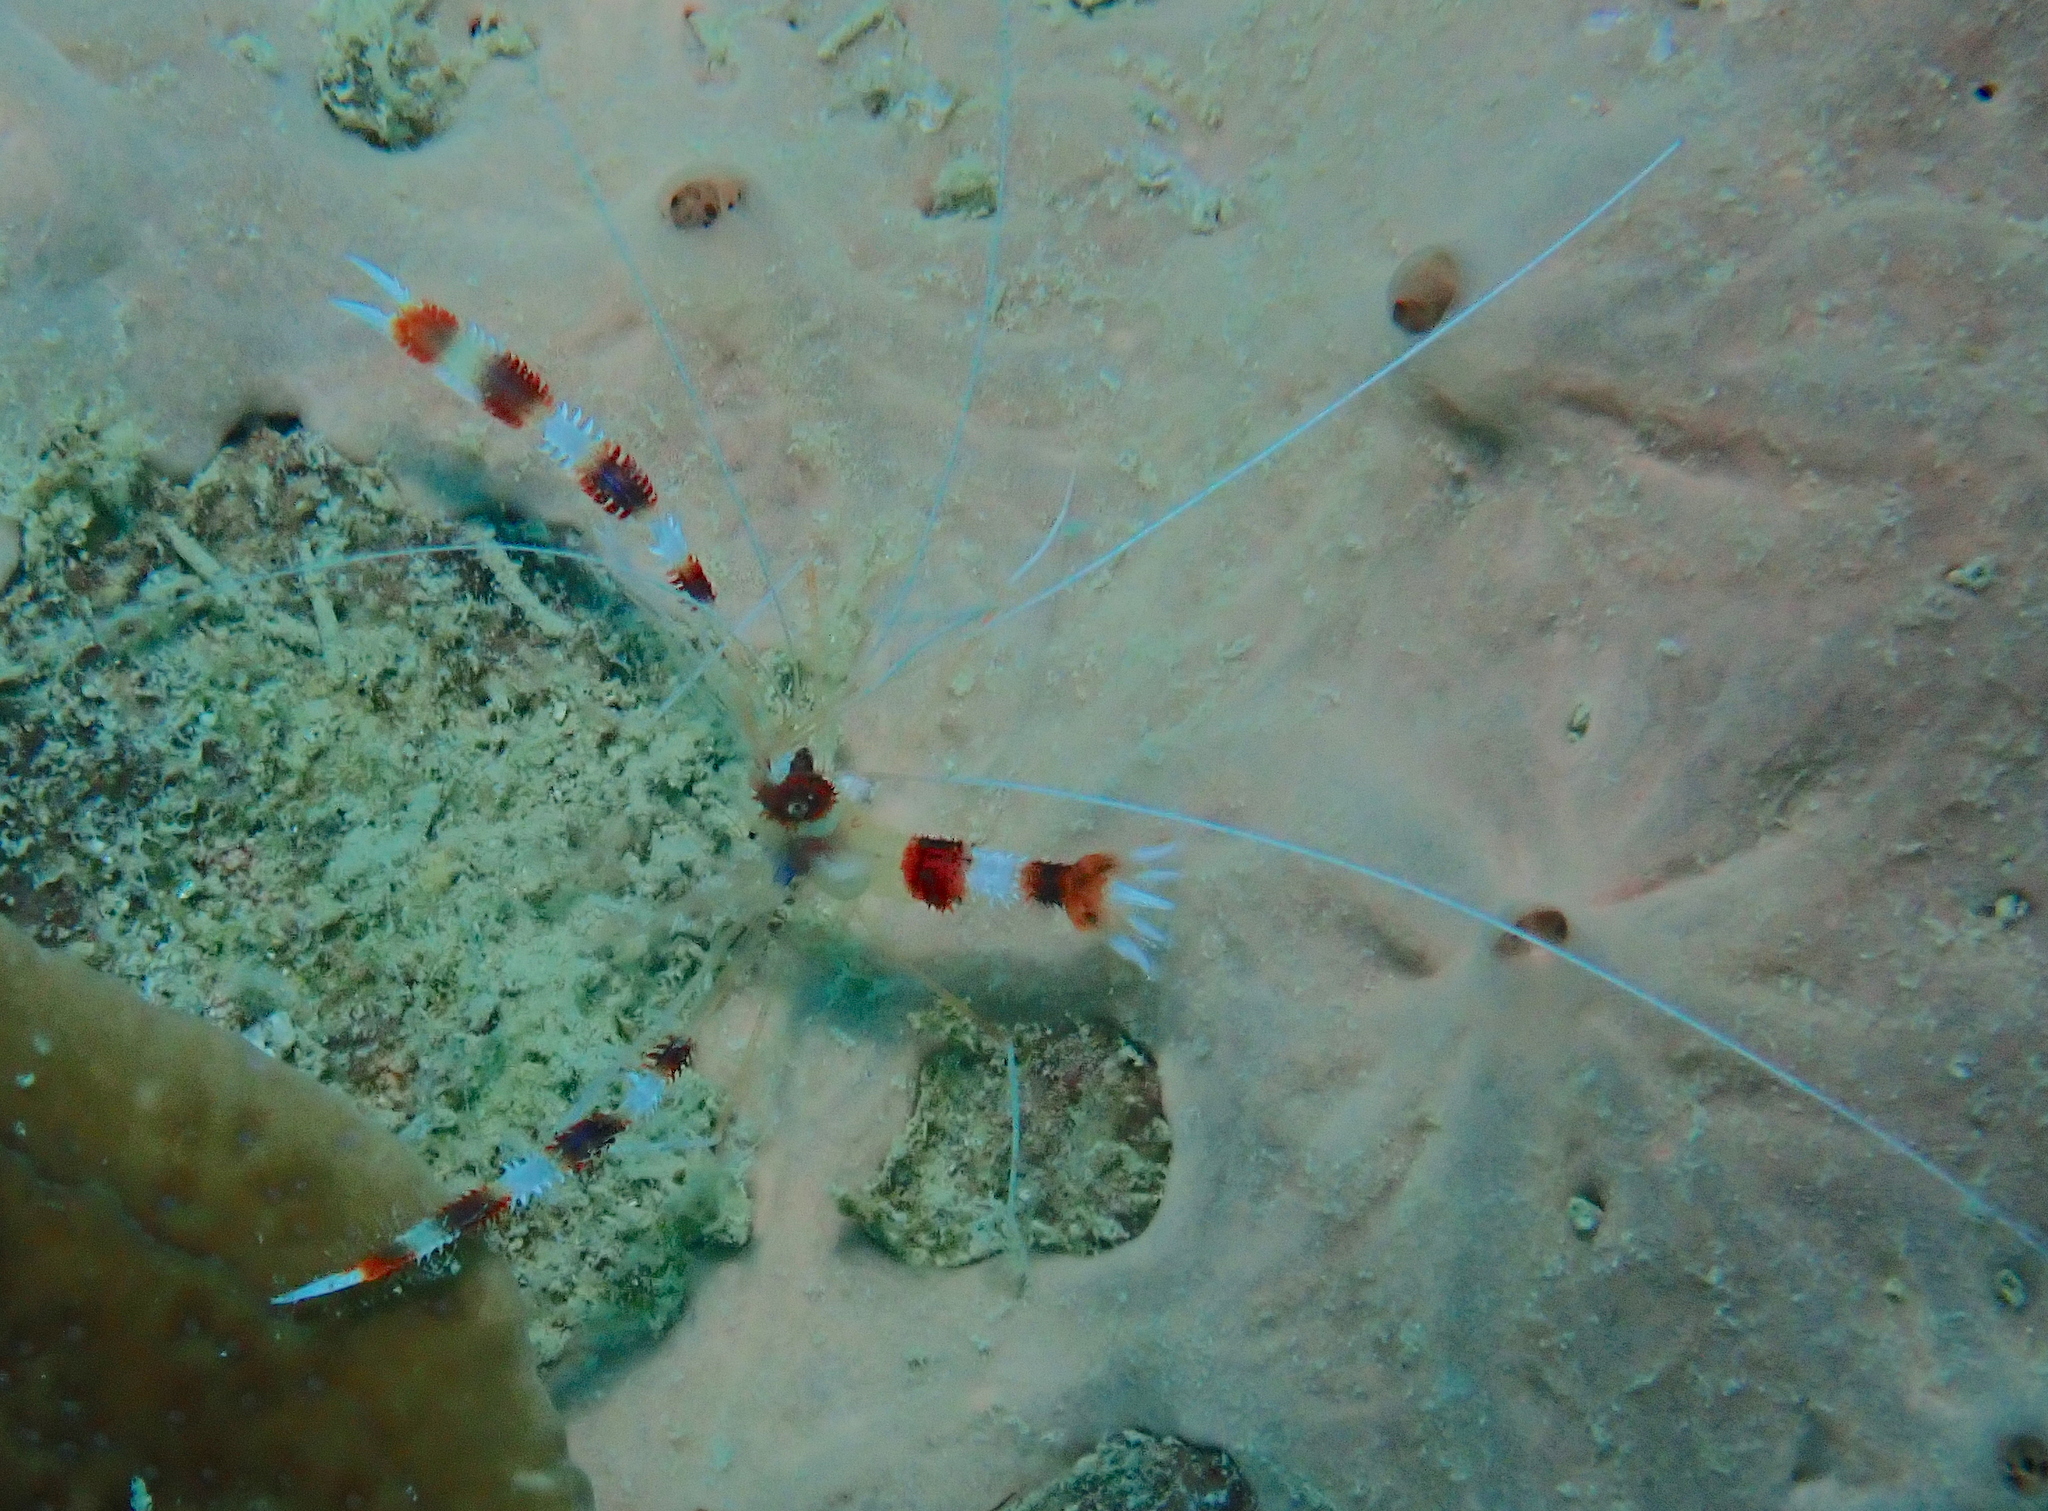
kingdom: Animalia
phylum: Arthropoda
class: Malacostraca
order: Decapoda
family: Stenopodidae
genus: Stenopus
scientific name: Stenopus hispidus
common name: Banded coral shrimp
